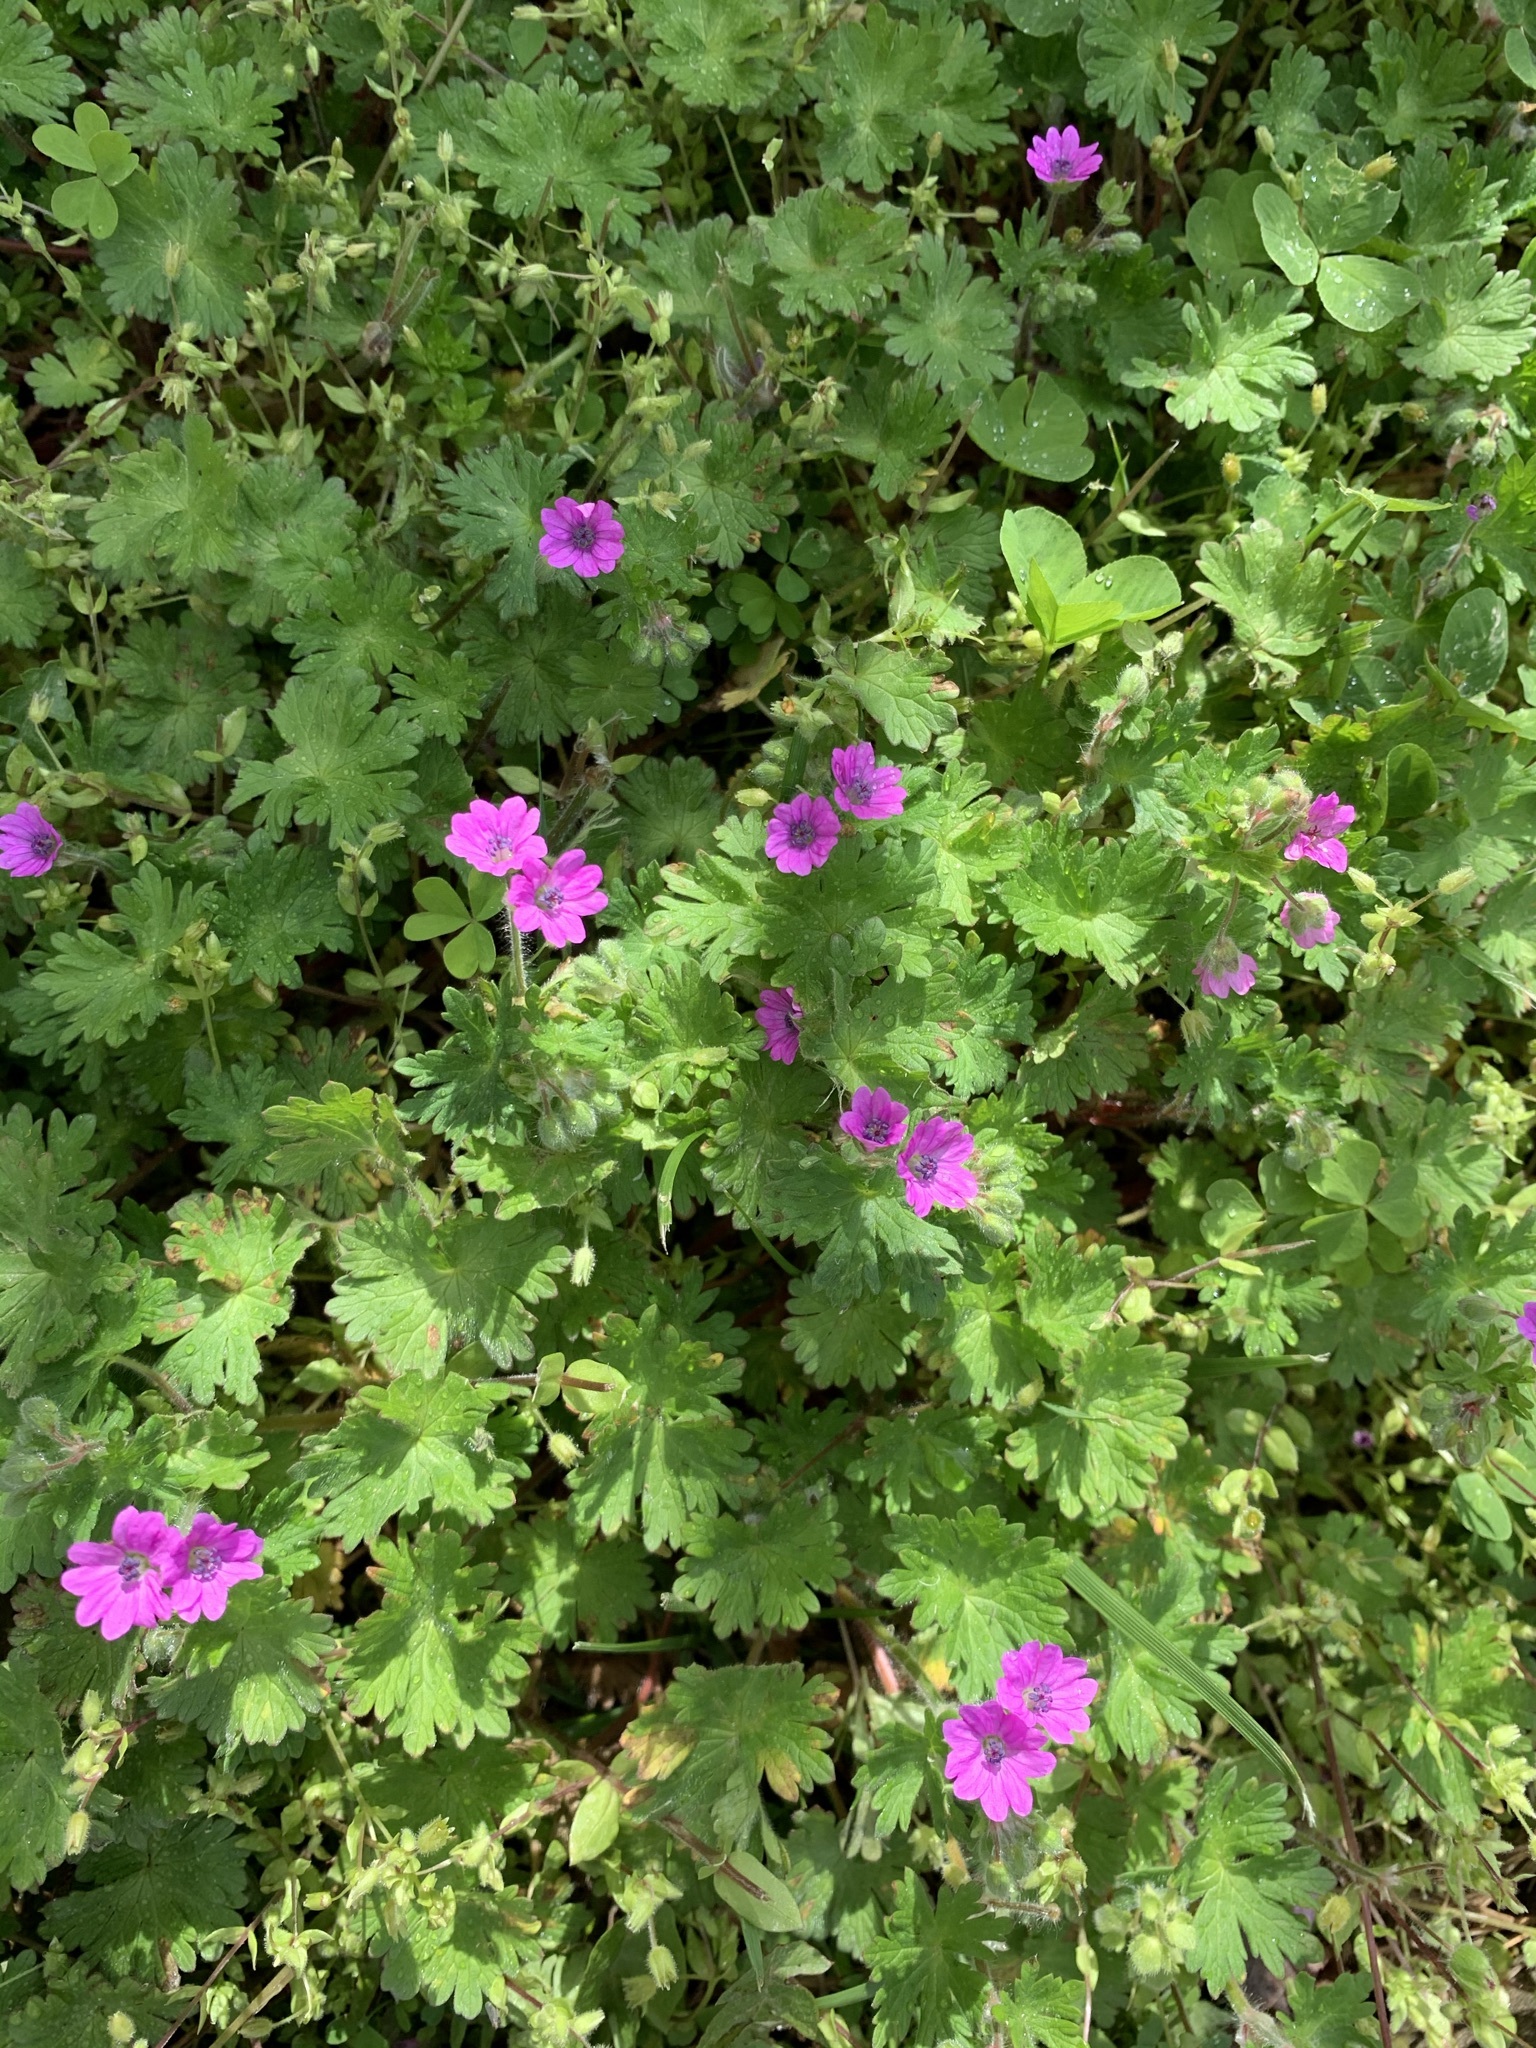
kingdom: Plantae
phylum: Tracheophyta
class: Magnoliopsida
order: Geraniales
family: Geraniaceae
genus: Geranium
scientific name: Geranium molle
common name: Dove's-foot crane's-bill
